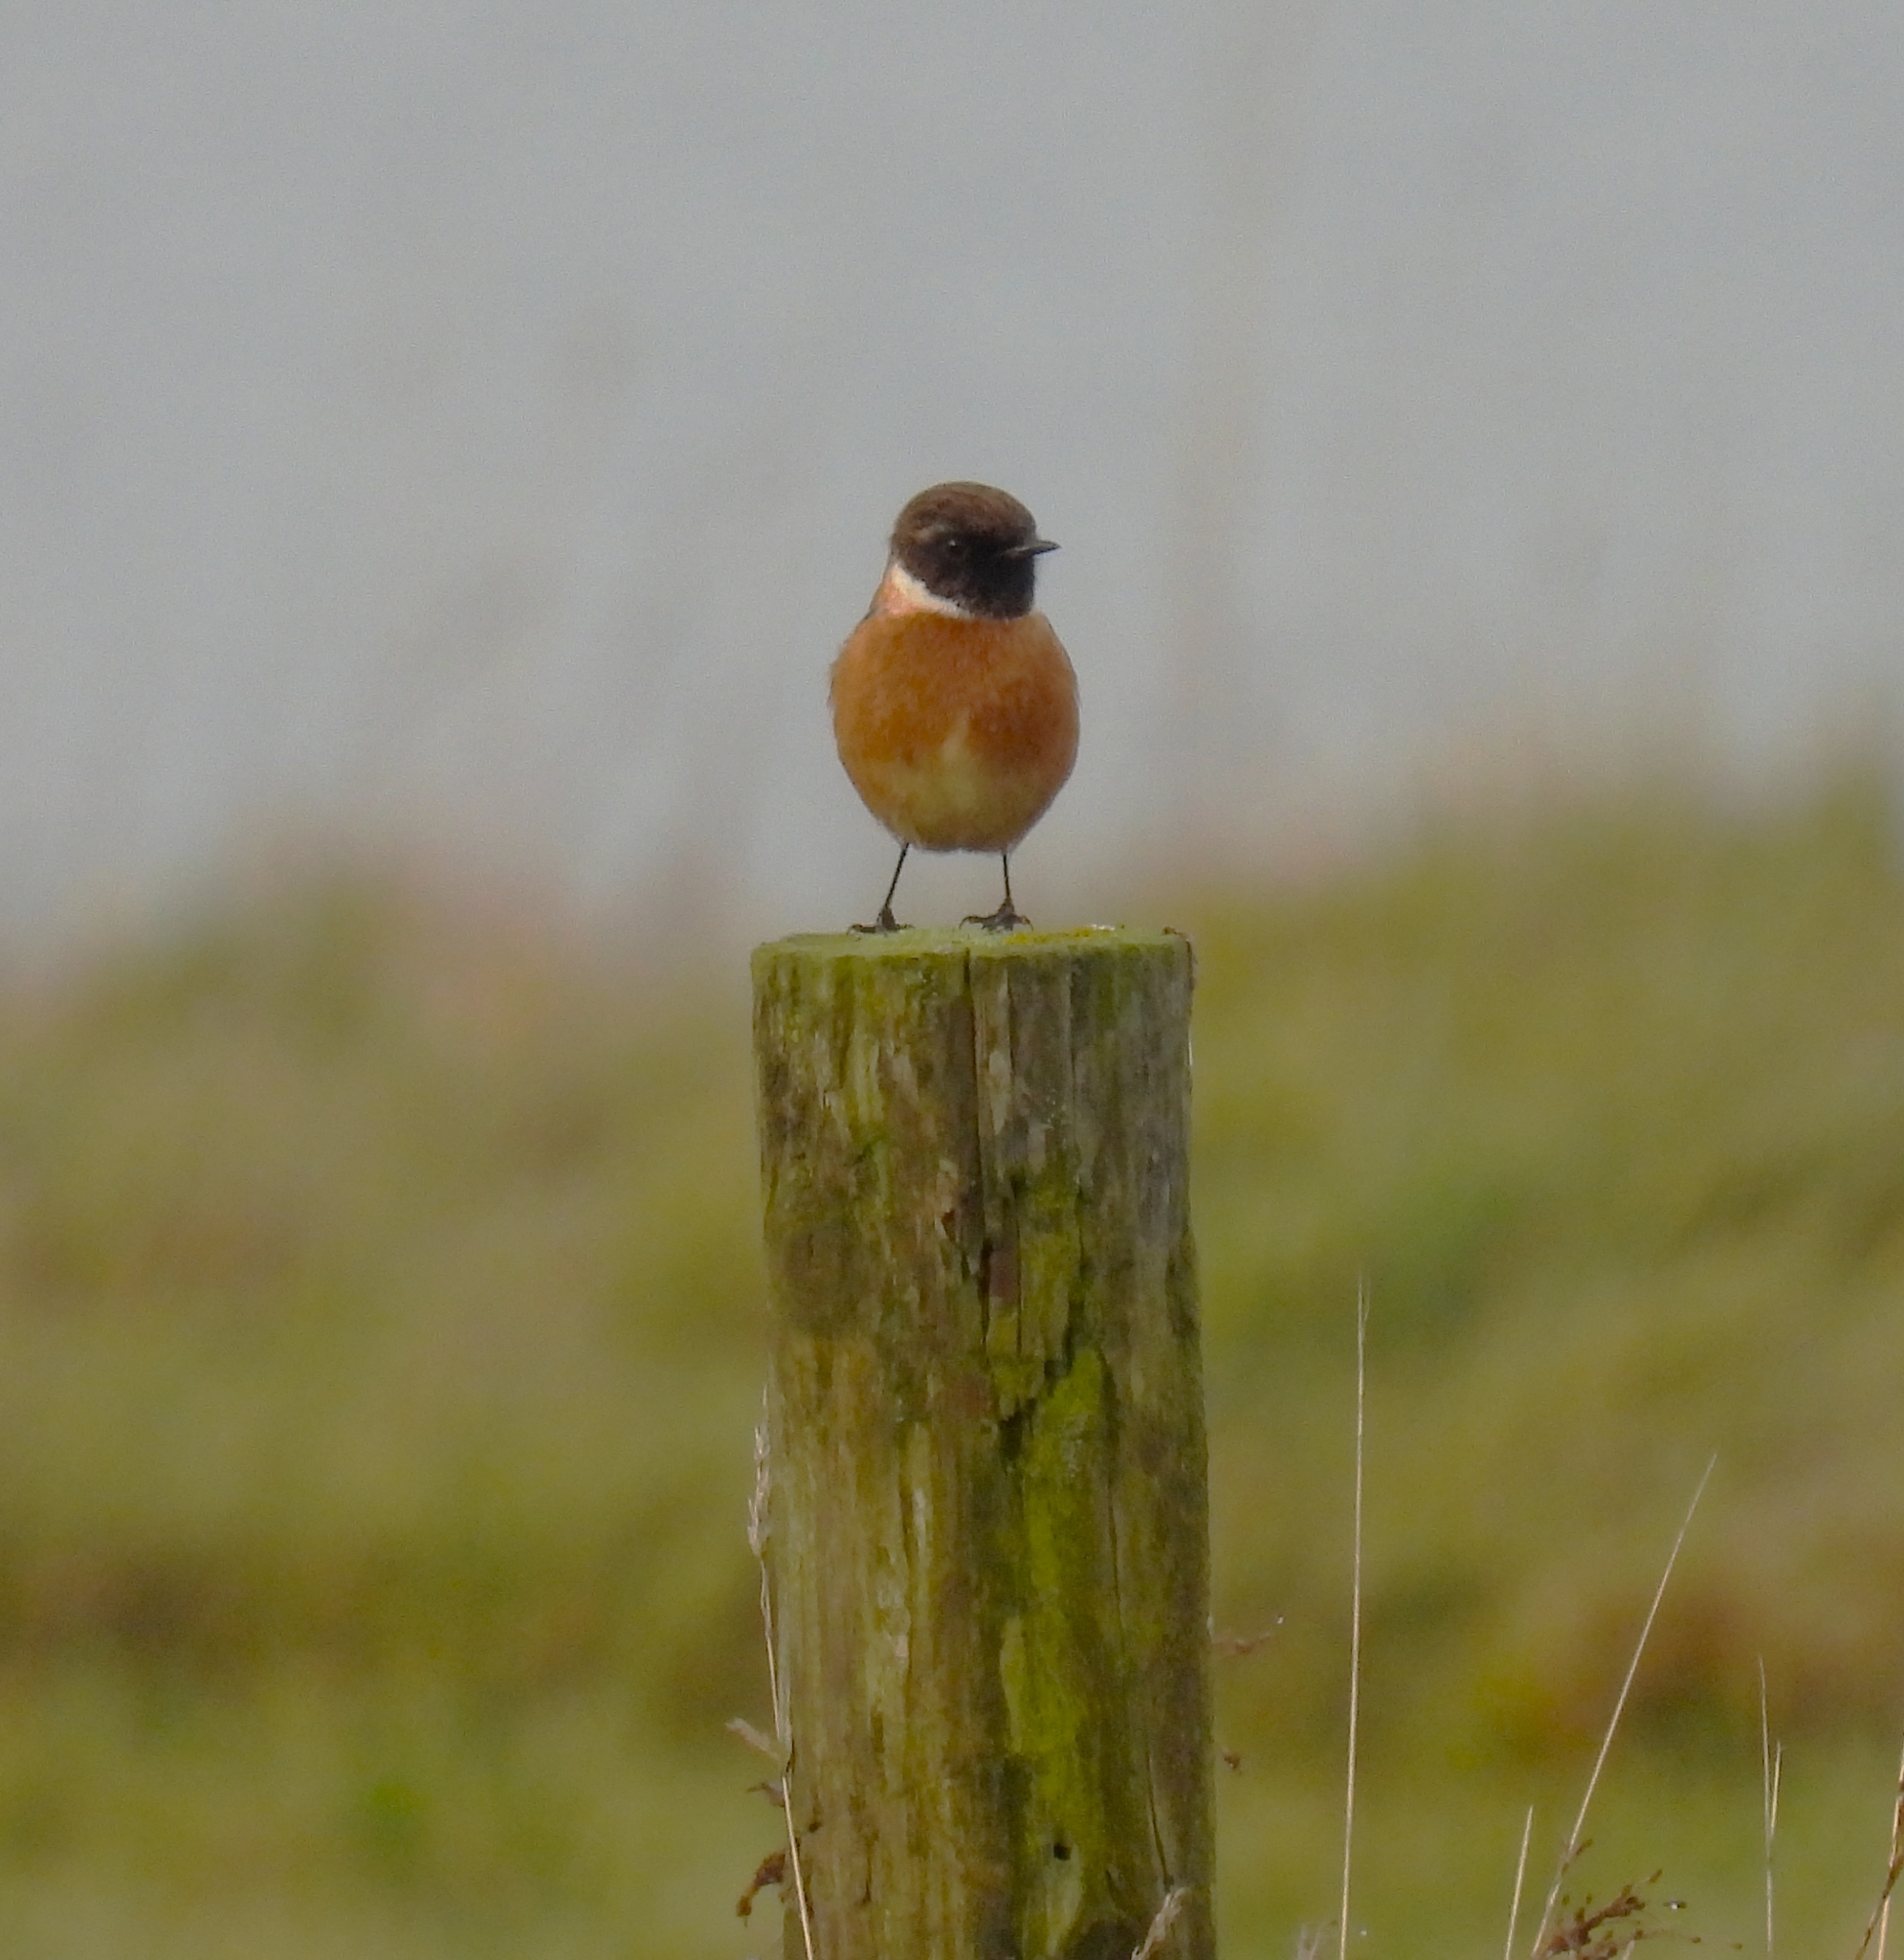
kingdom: Animalia
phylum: Chordata
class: Aves
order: Passeriformes
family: Muscicapidae
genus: Saxicola
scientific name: Saxicola rubicola
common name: European stonechat
